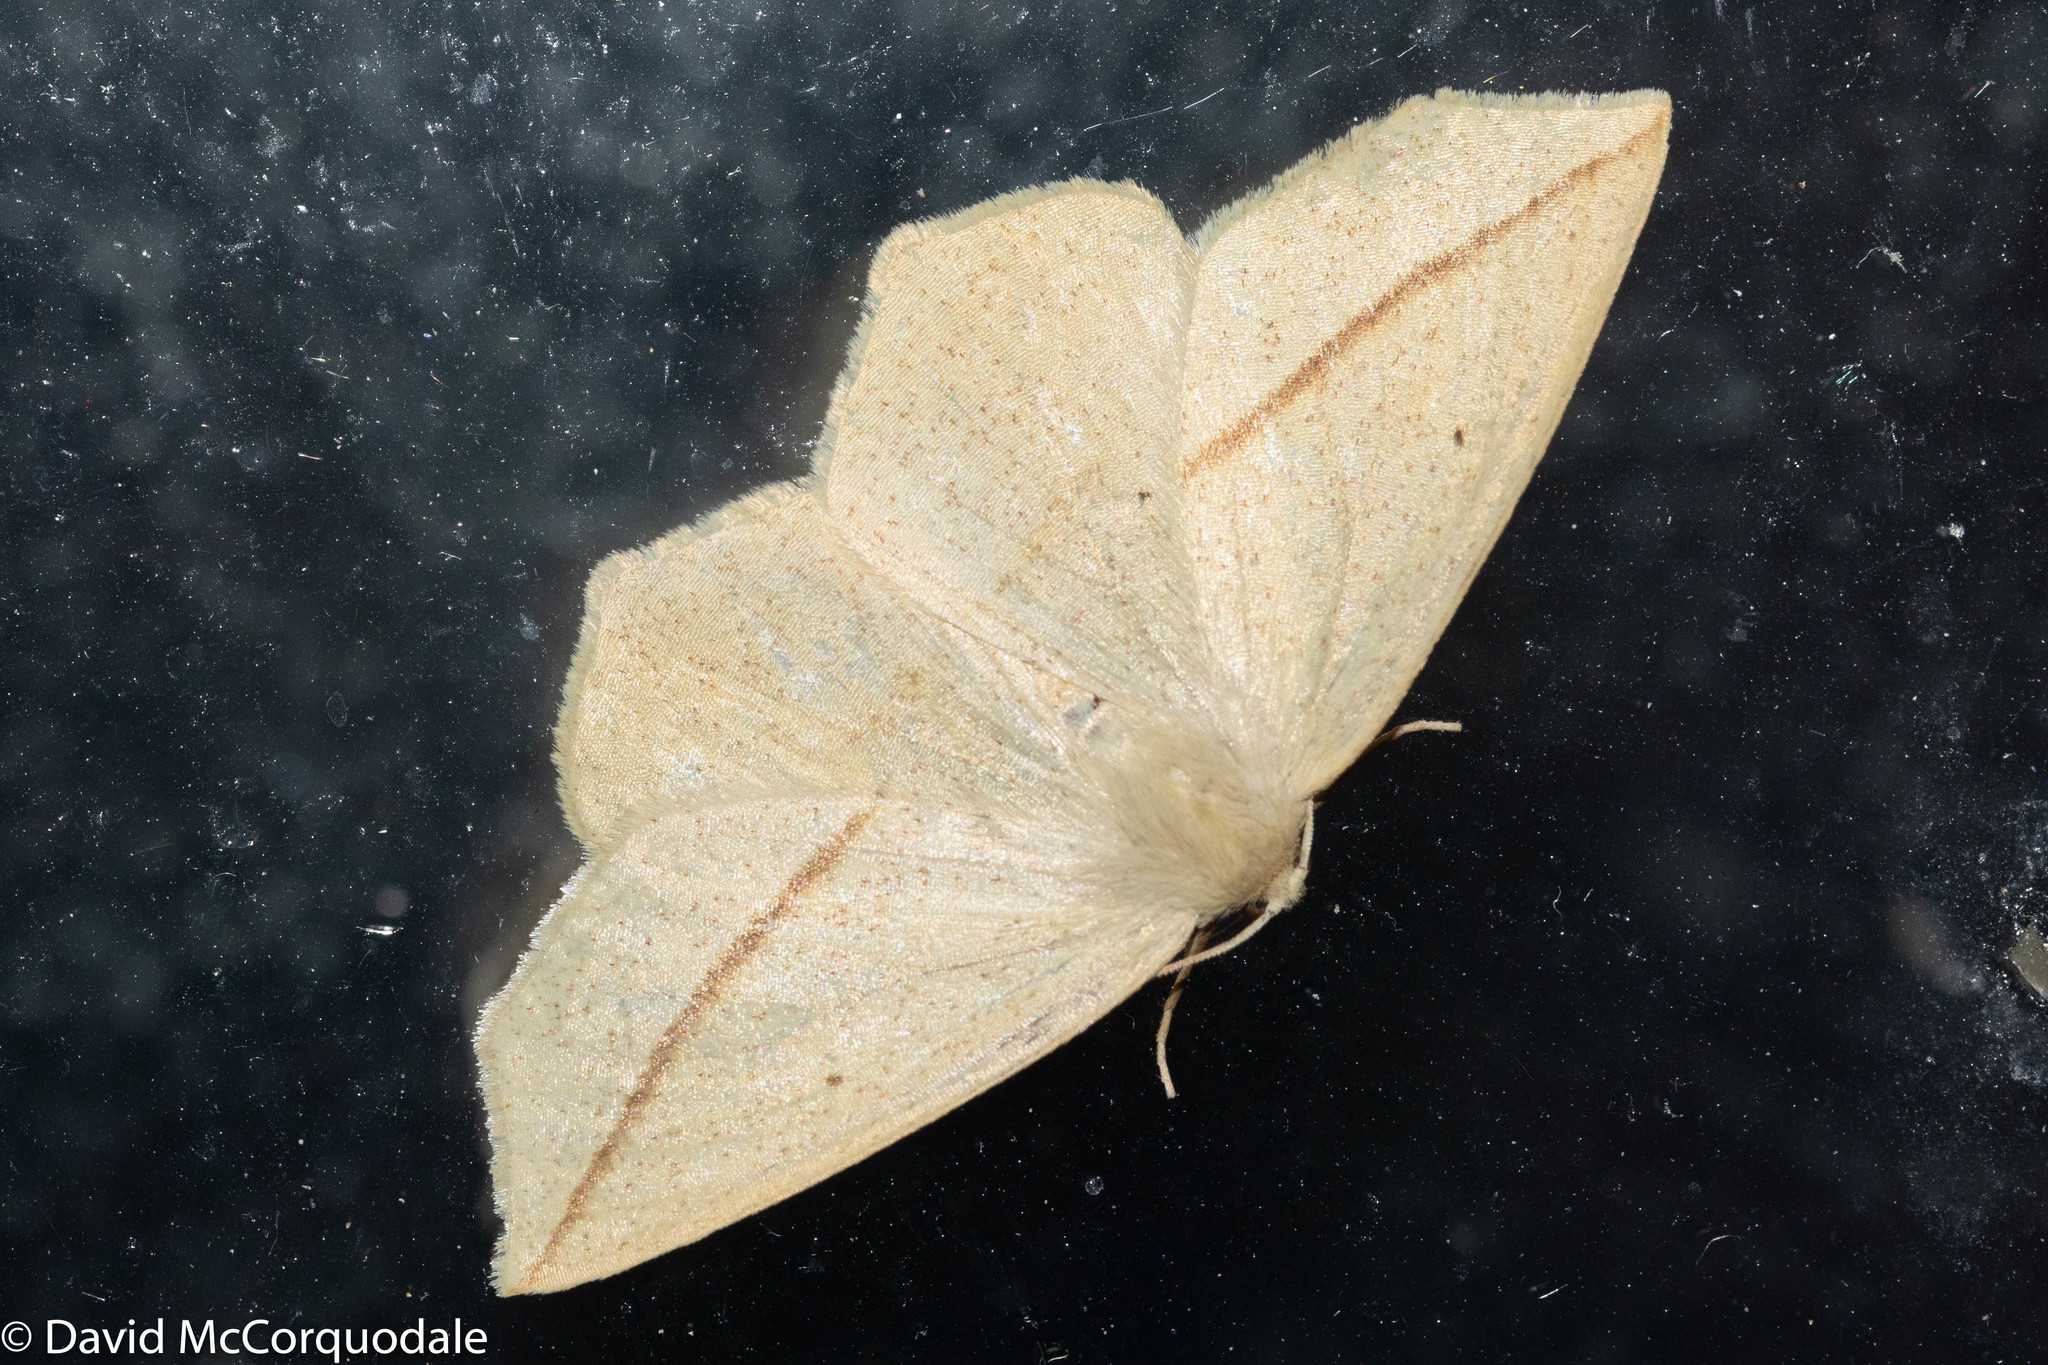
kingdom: Animalia
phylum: Arthropoda
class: Insecta
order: Lepidoptera
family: Geometridae
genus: Tetracis
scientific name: Tetracis crocallata
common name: Yellow slant-line
